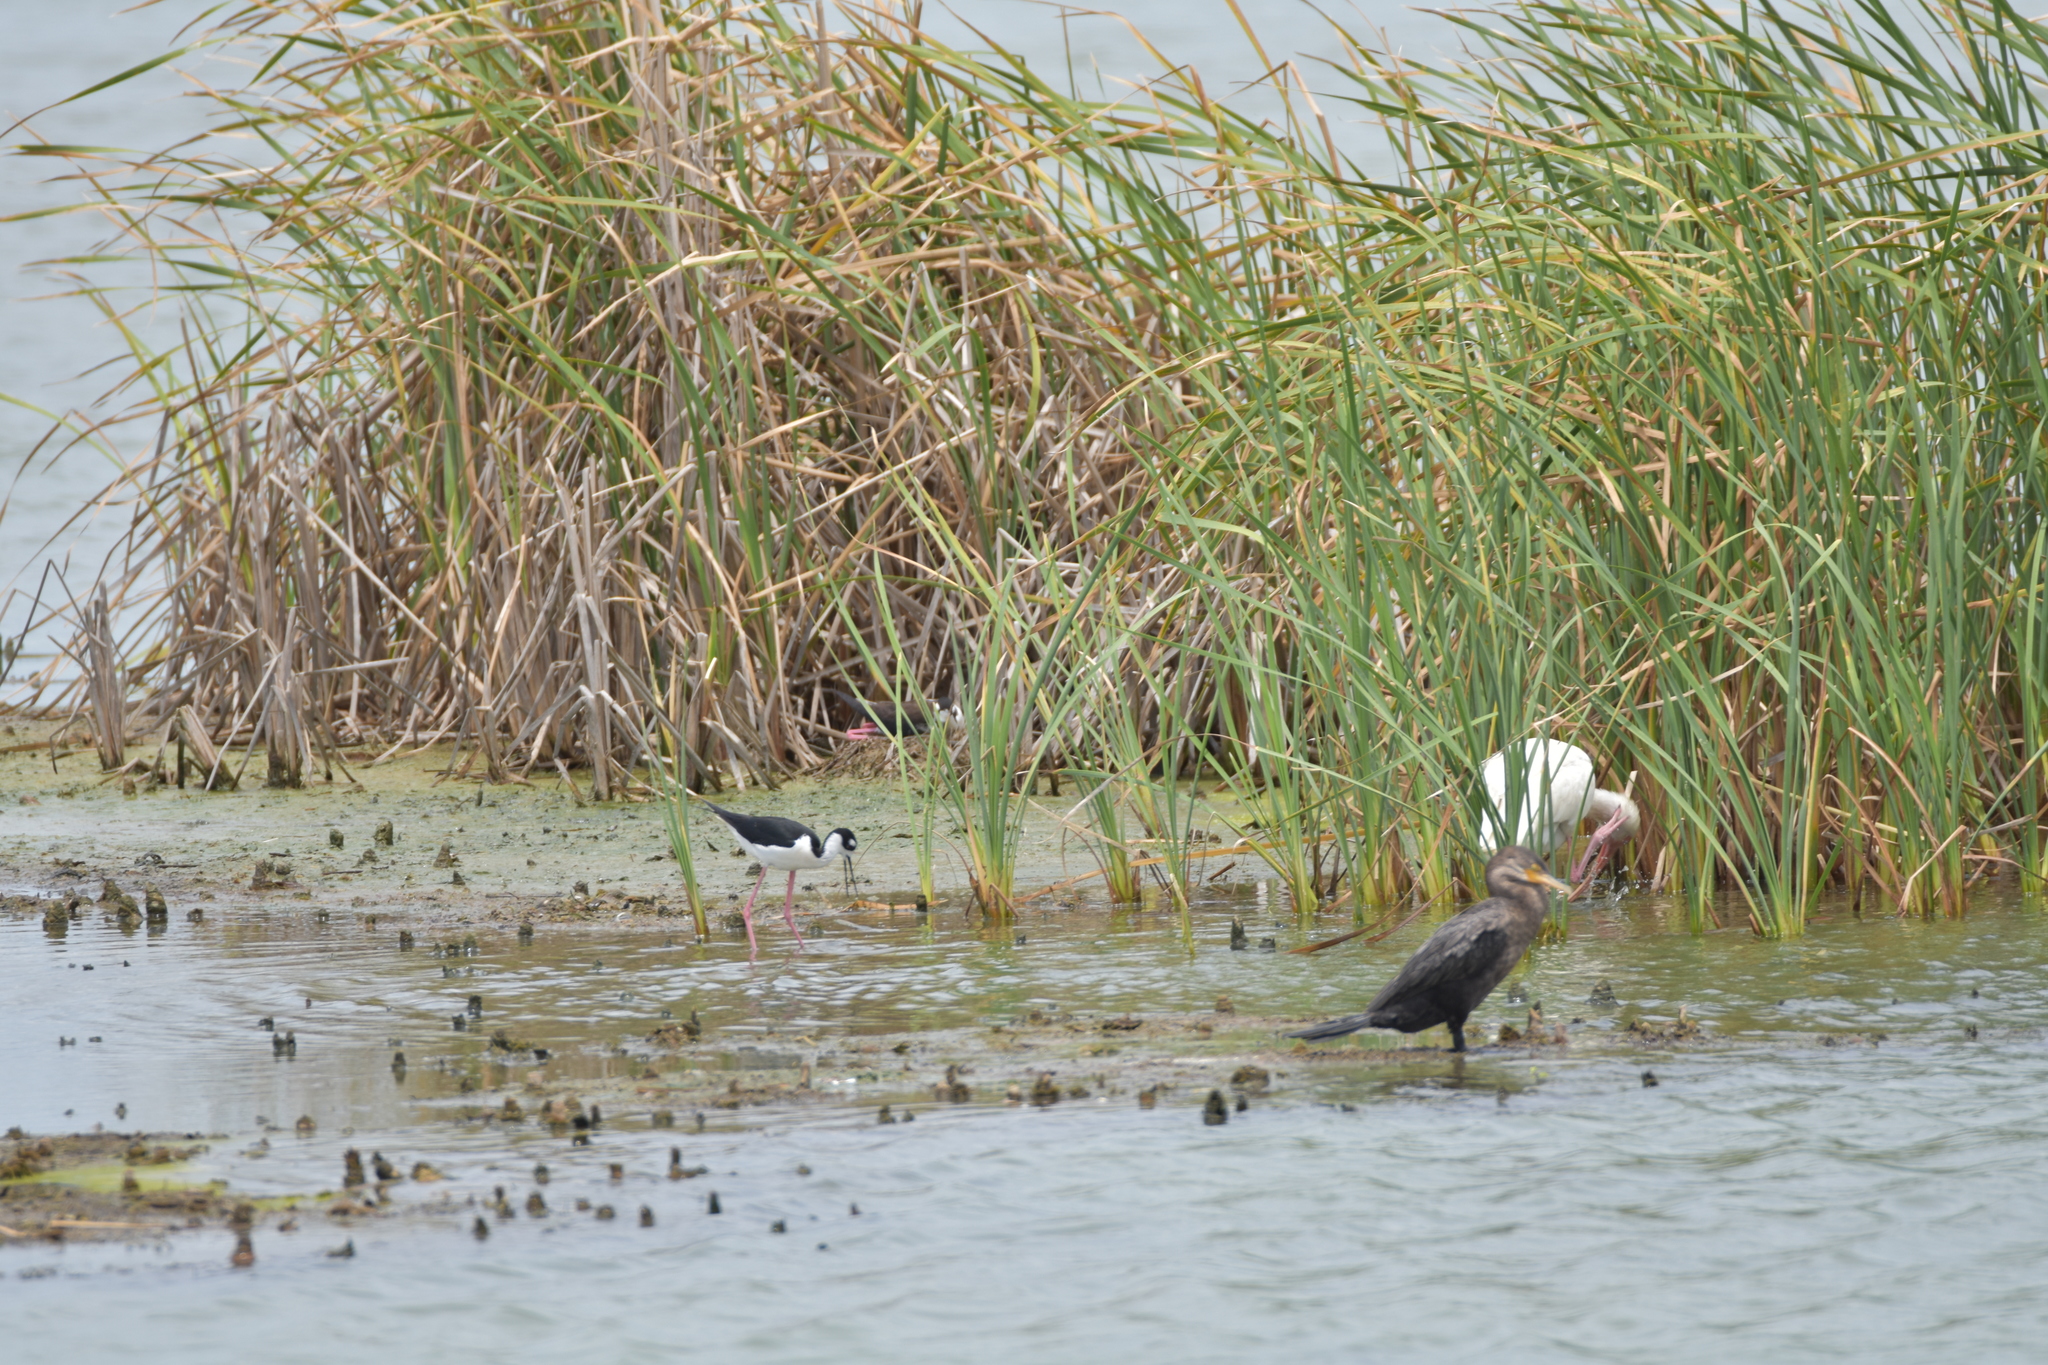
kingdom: Animalia
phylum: Chordata
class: Aves
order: Charadriiformes
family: Recurvirostridae
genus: Himantopus
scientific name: Himantopus mexicanus
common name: Black-necked stilt
